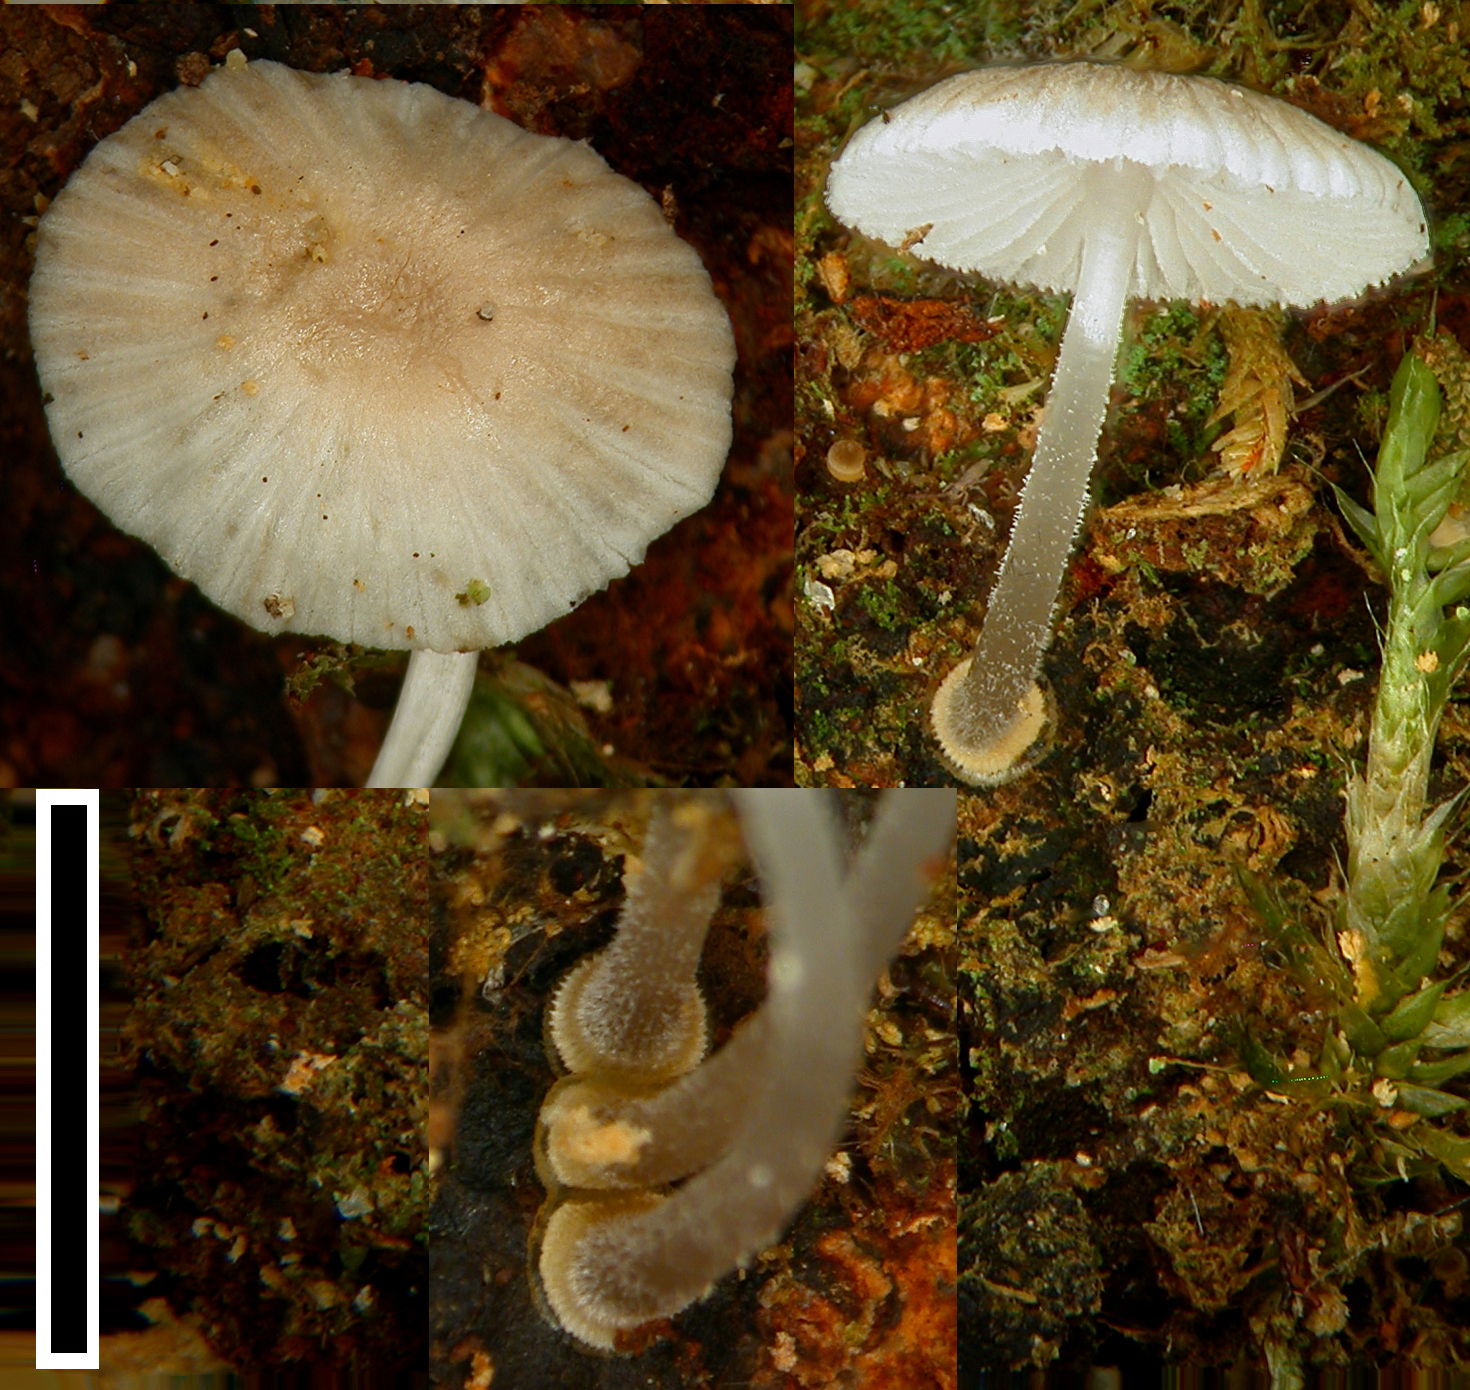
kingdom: Fungi
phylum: Basidiomycota
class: Agaricomycetes
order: Agaricales
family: Mycenaceae
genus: Mycena
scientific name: Mycena carmeliana
